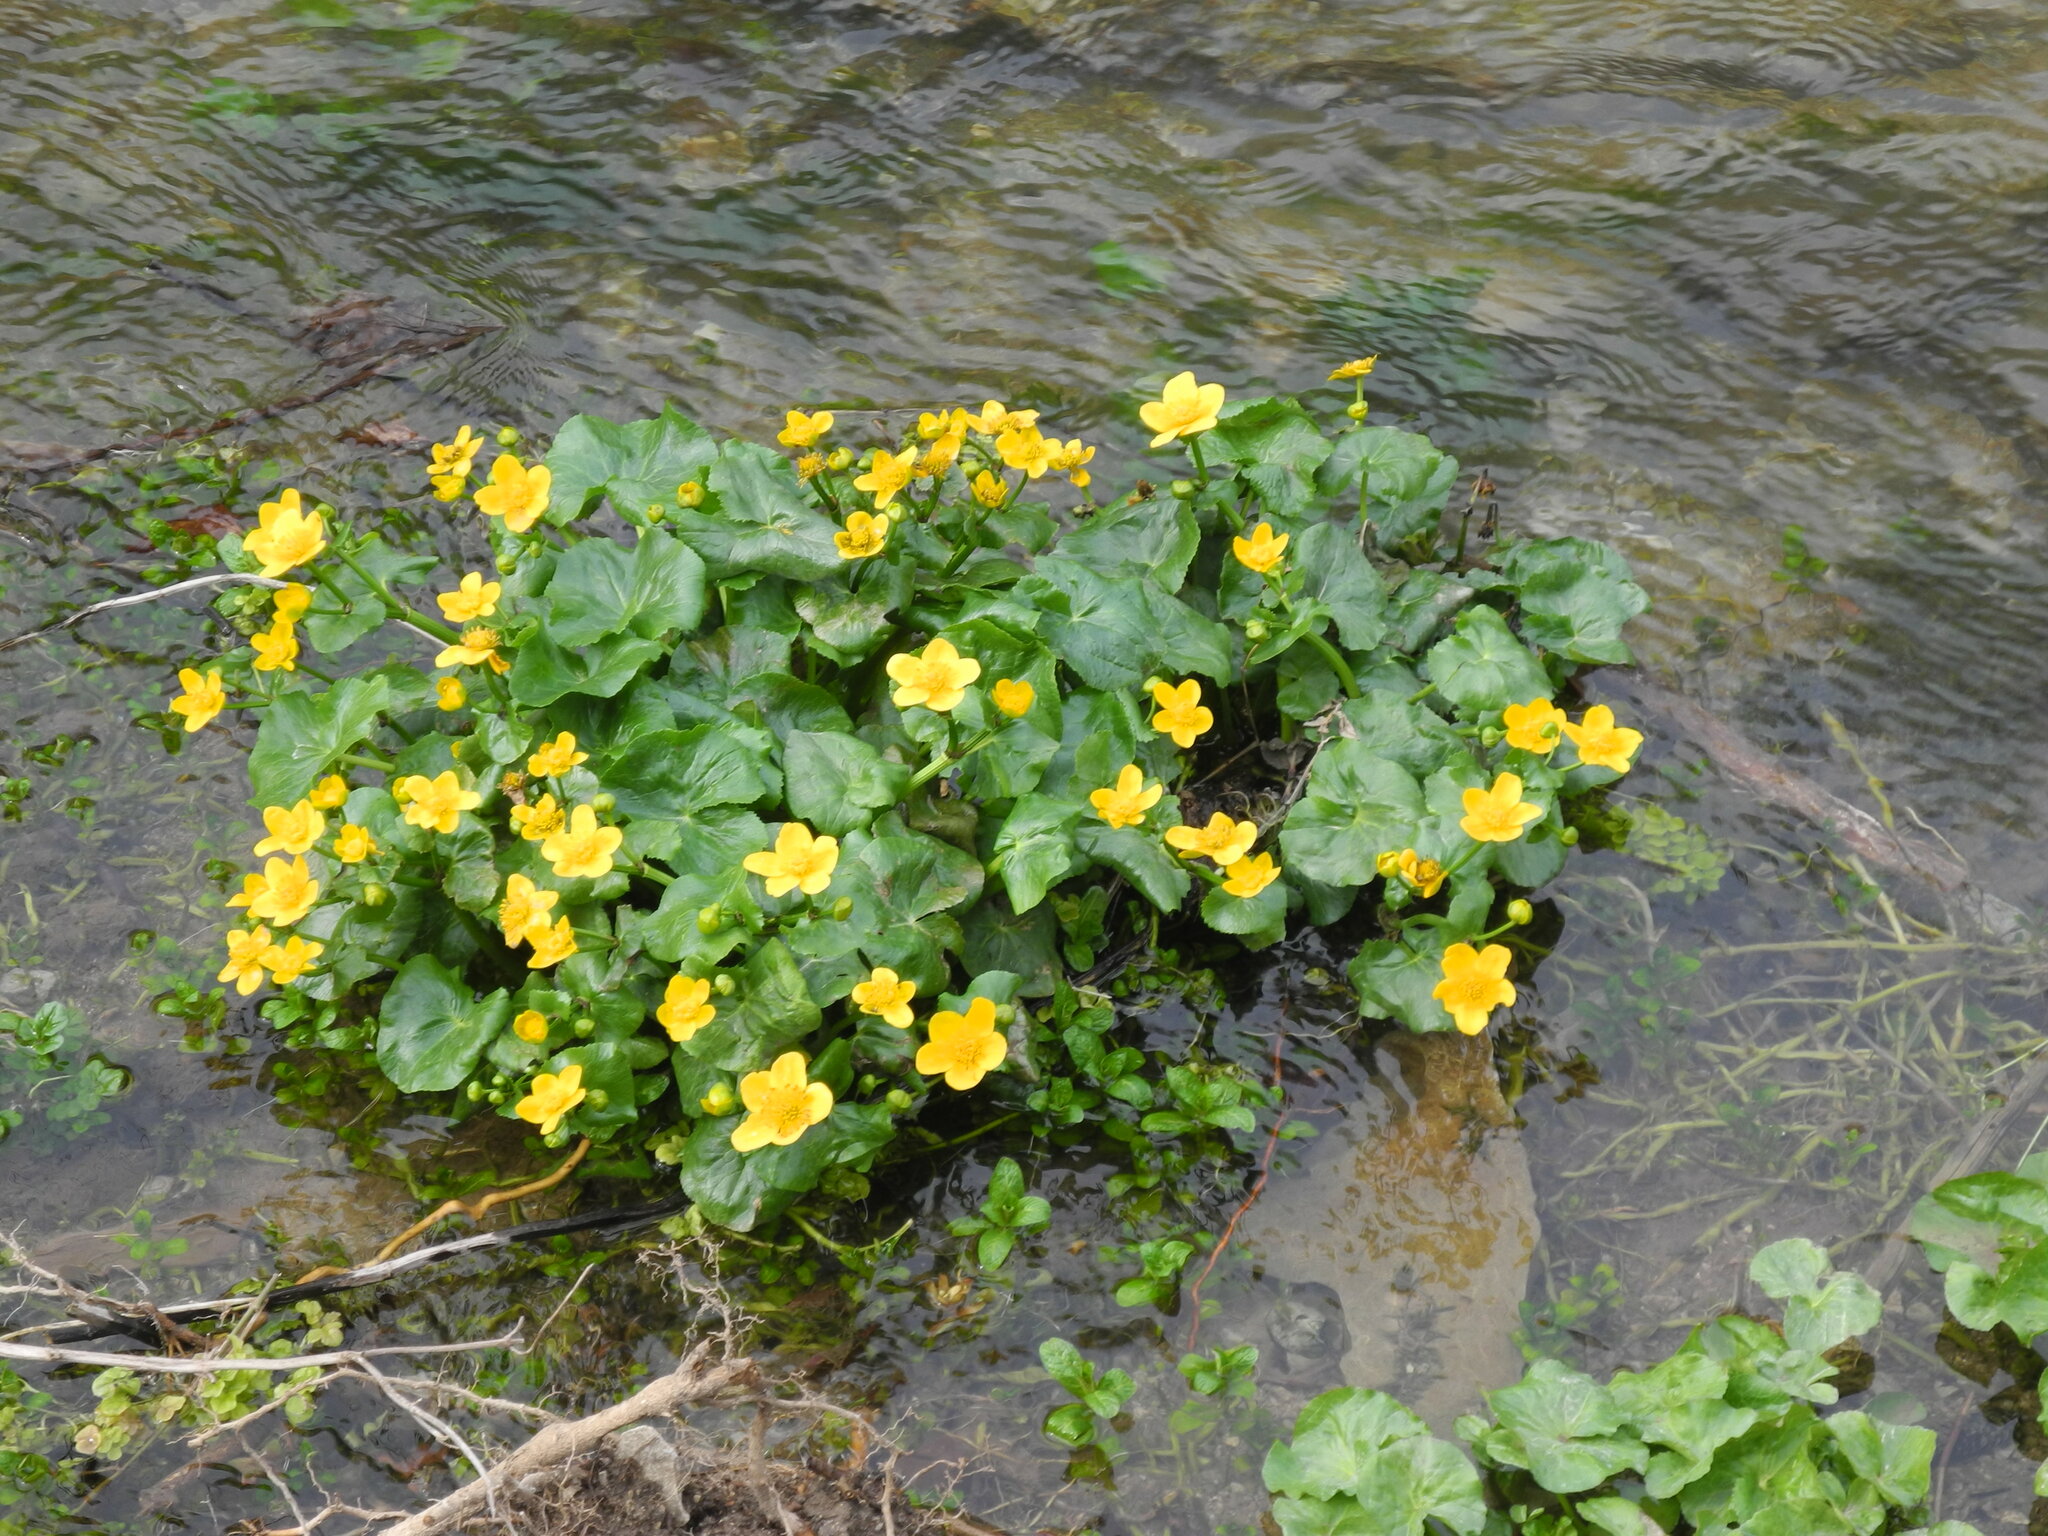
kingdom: Plantae
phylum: Tracheophyta
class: Magnoliopsida
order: Ranunculales
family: Ranunculaceae
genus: Caltha
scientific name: Caltha palustris
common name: Marsh marigold
